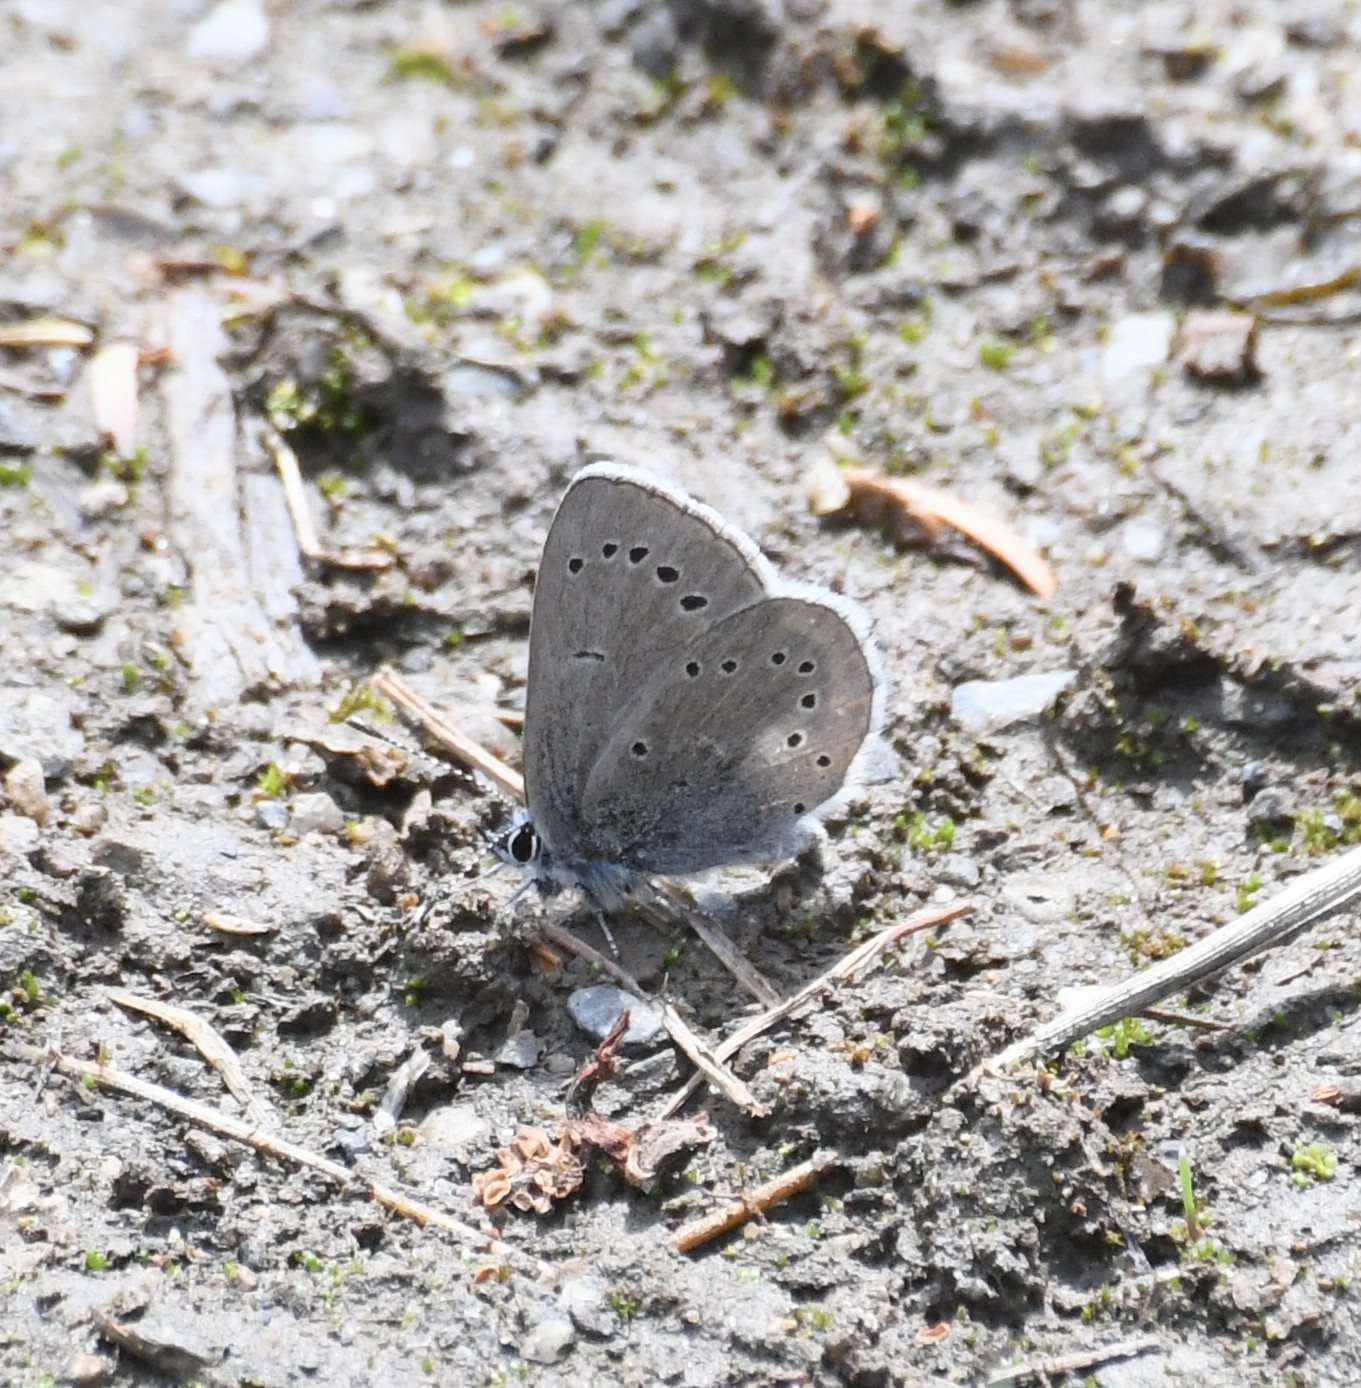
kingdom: Animalia
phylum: Arthropoda
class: Insecta
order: Lepidoptera
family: Lycaenidae
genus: Glaucopsyche
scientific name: Glaucopsyche lygdamus
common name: Silvery blue
